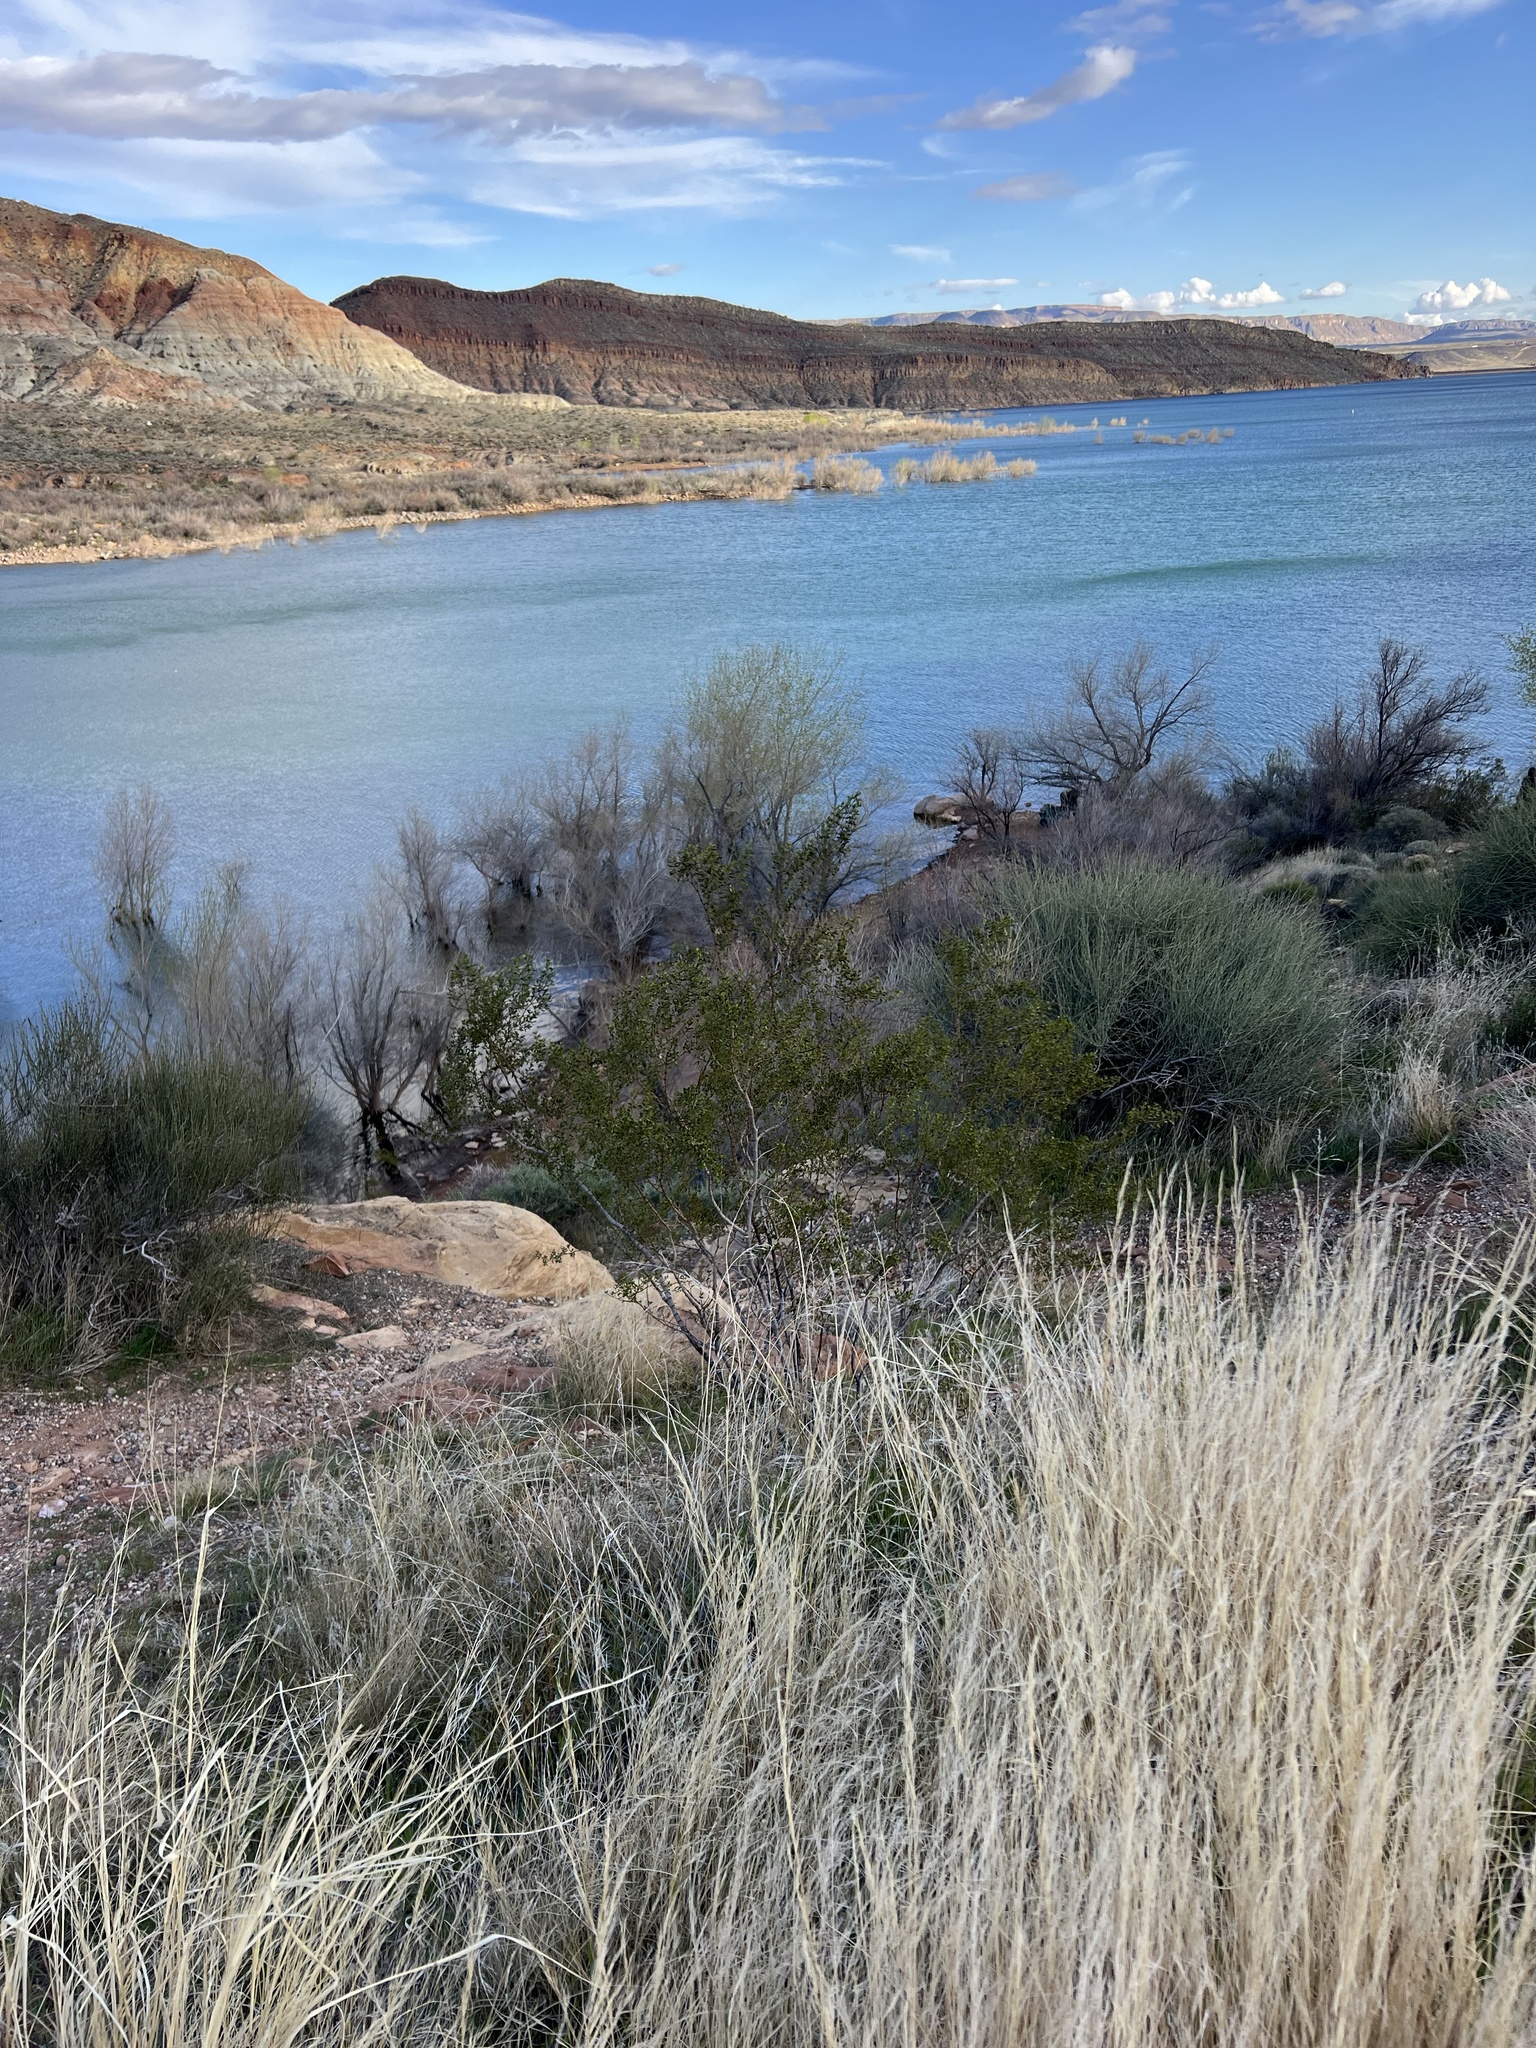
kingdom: Plantae
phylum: Tracheophyta
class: Magnoliopsida
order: Zygophyllales
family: Zygophyllaceae
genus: Larrea
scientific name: Larrea tridentata
